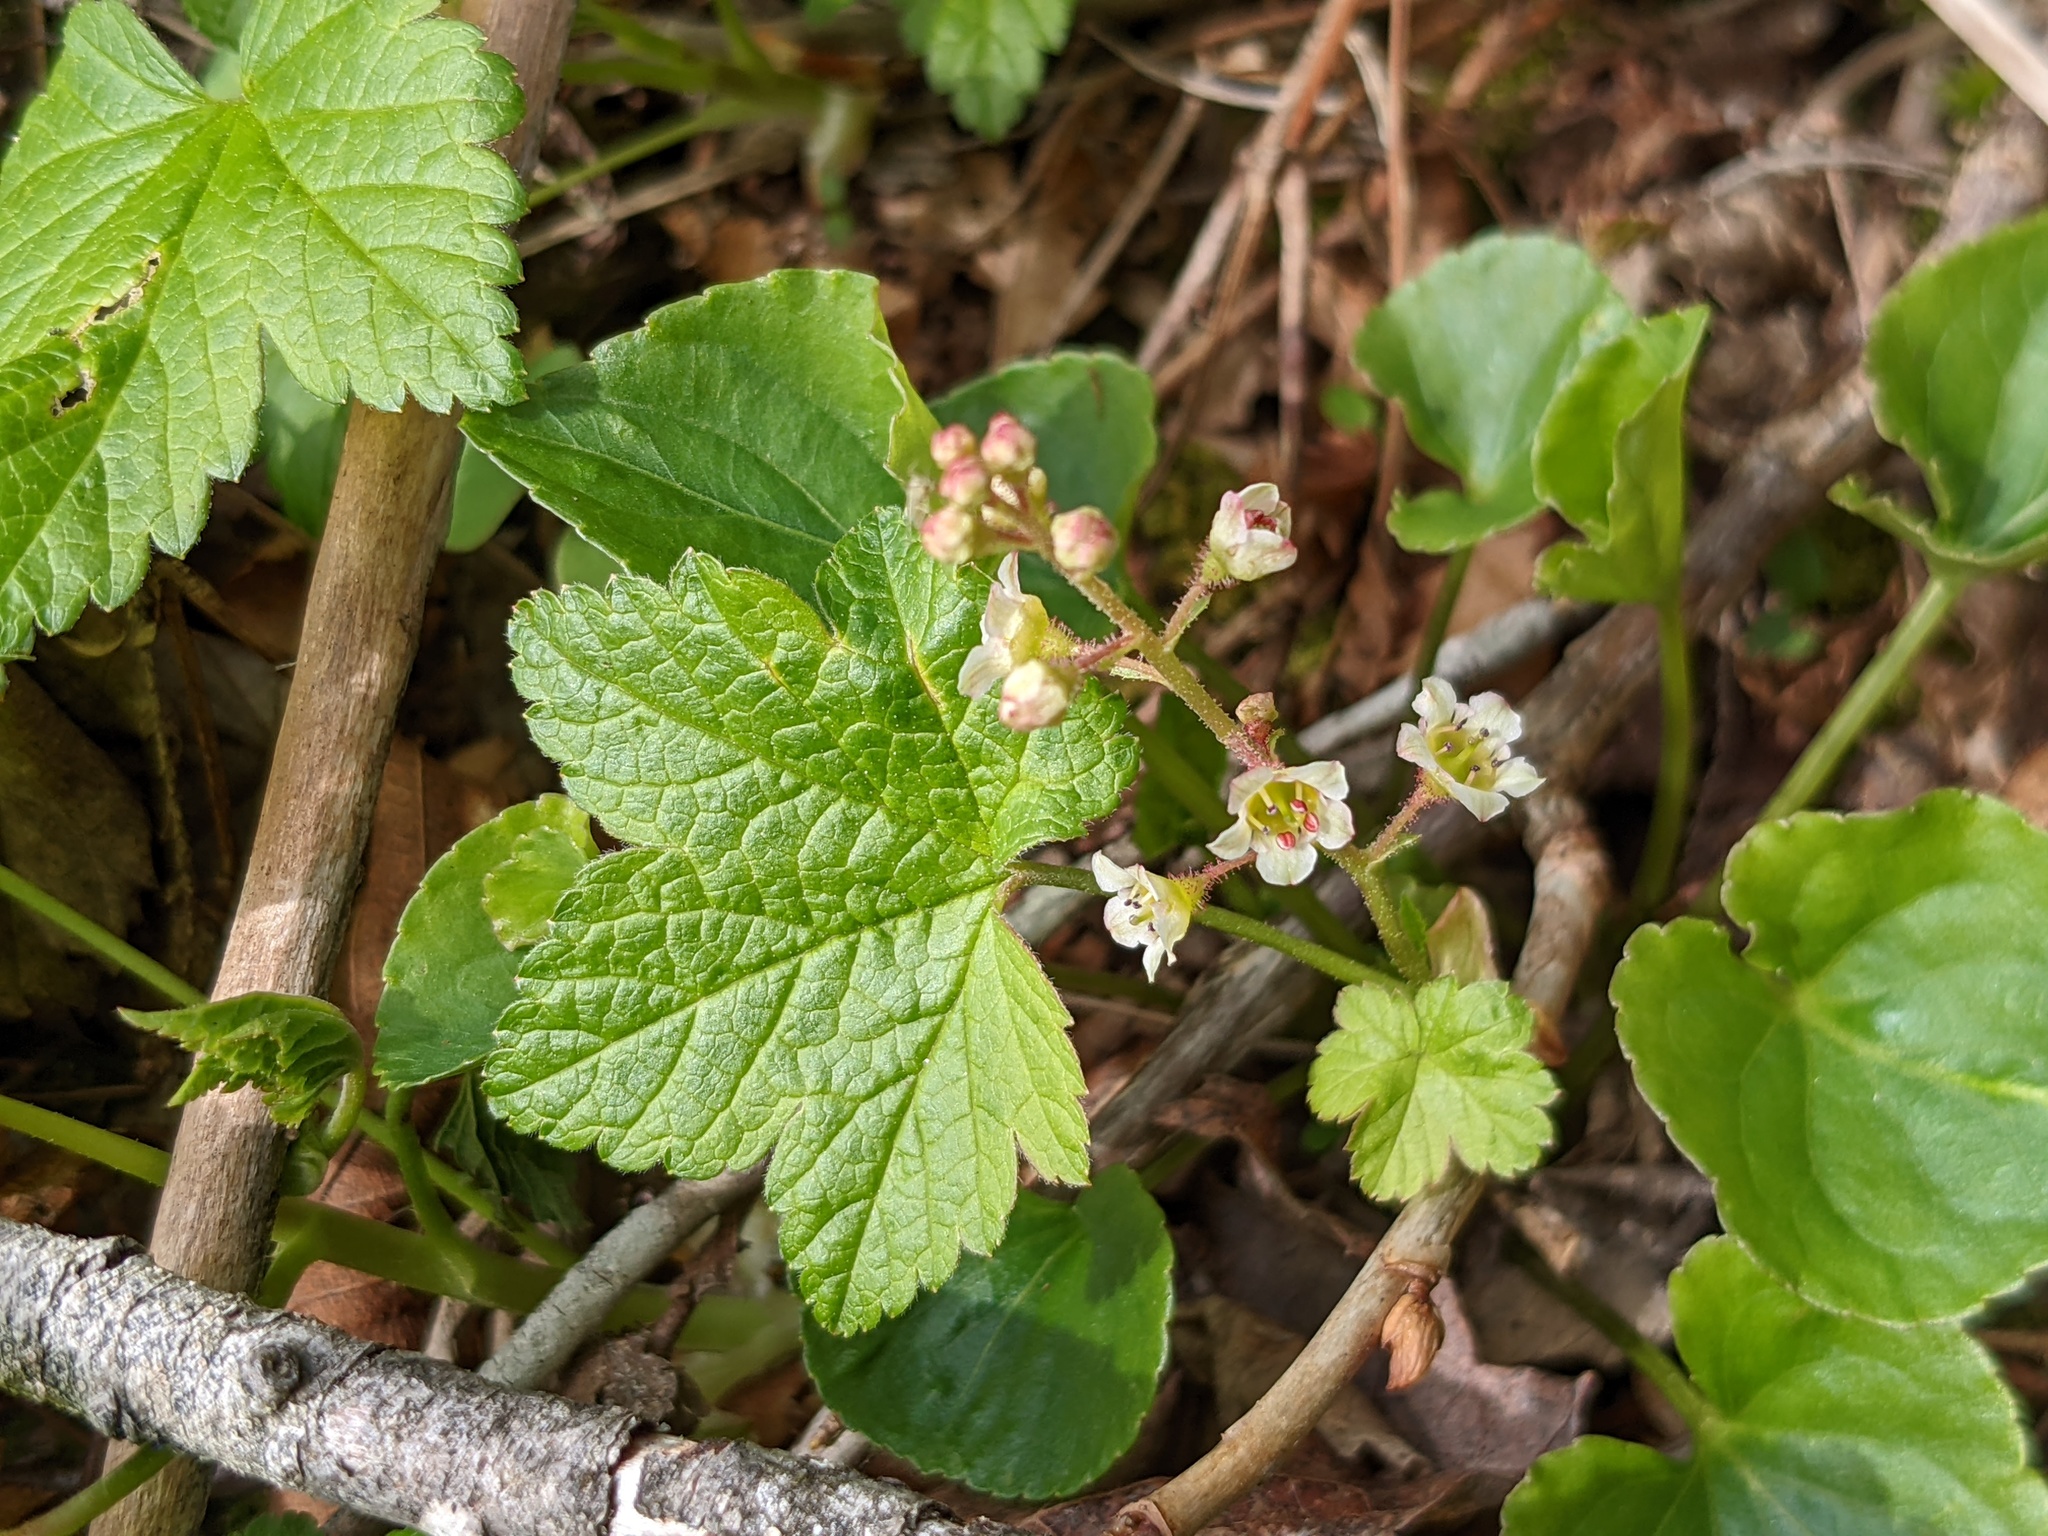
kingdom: Plantae
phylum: Tracheophyta
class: Magnoliopsida
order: Saxifragales
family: Grossulariaceae
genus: Ribes
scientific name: Ribes glandulosum
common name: Skunk currant
